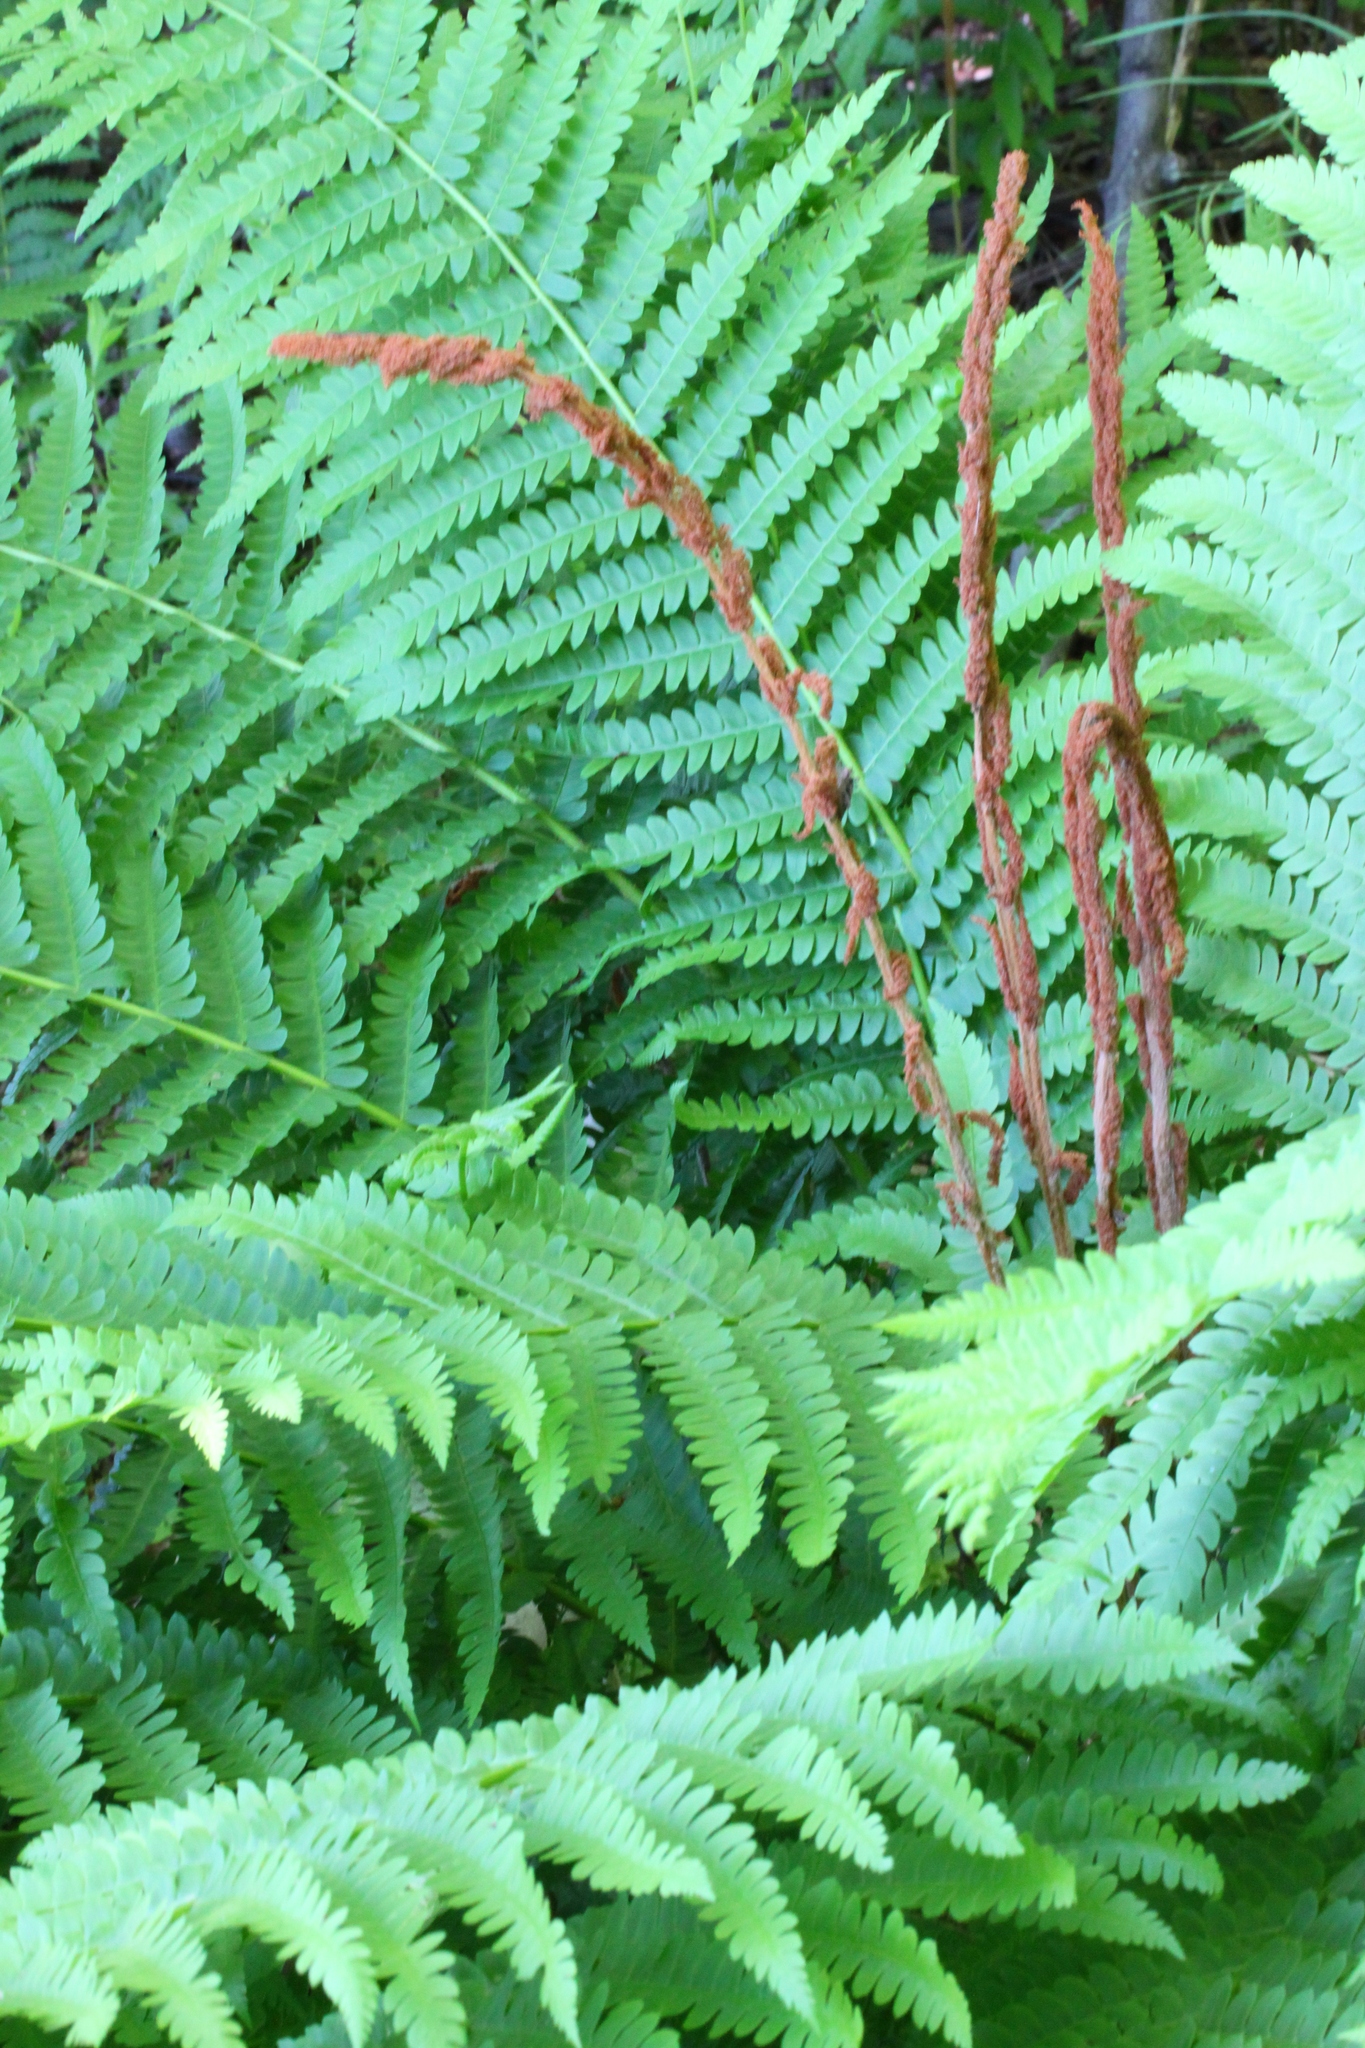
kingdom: Plantae
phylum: Tracheophyta
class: Polypodiopsida
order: Osmundales
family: Osmundaceae
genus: Osmundastrum
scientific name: Osmundastrum cinnamomeum
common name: Cinnamon fern
